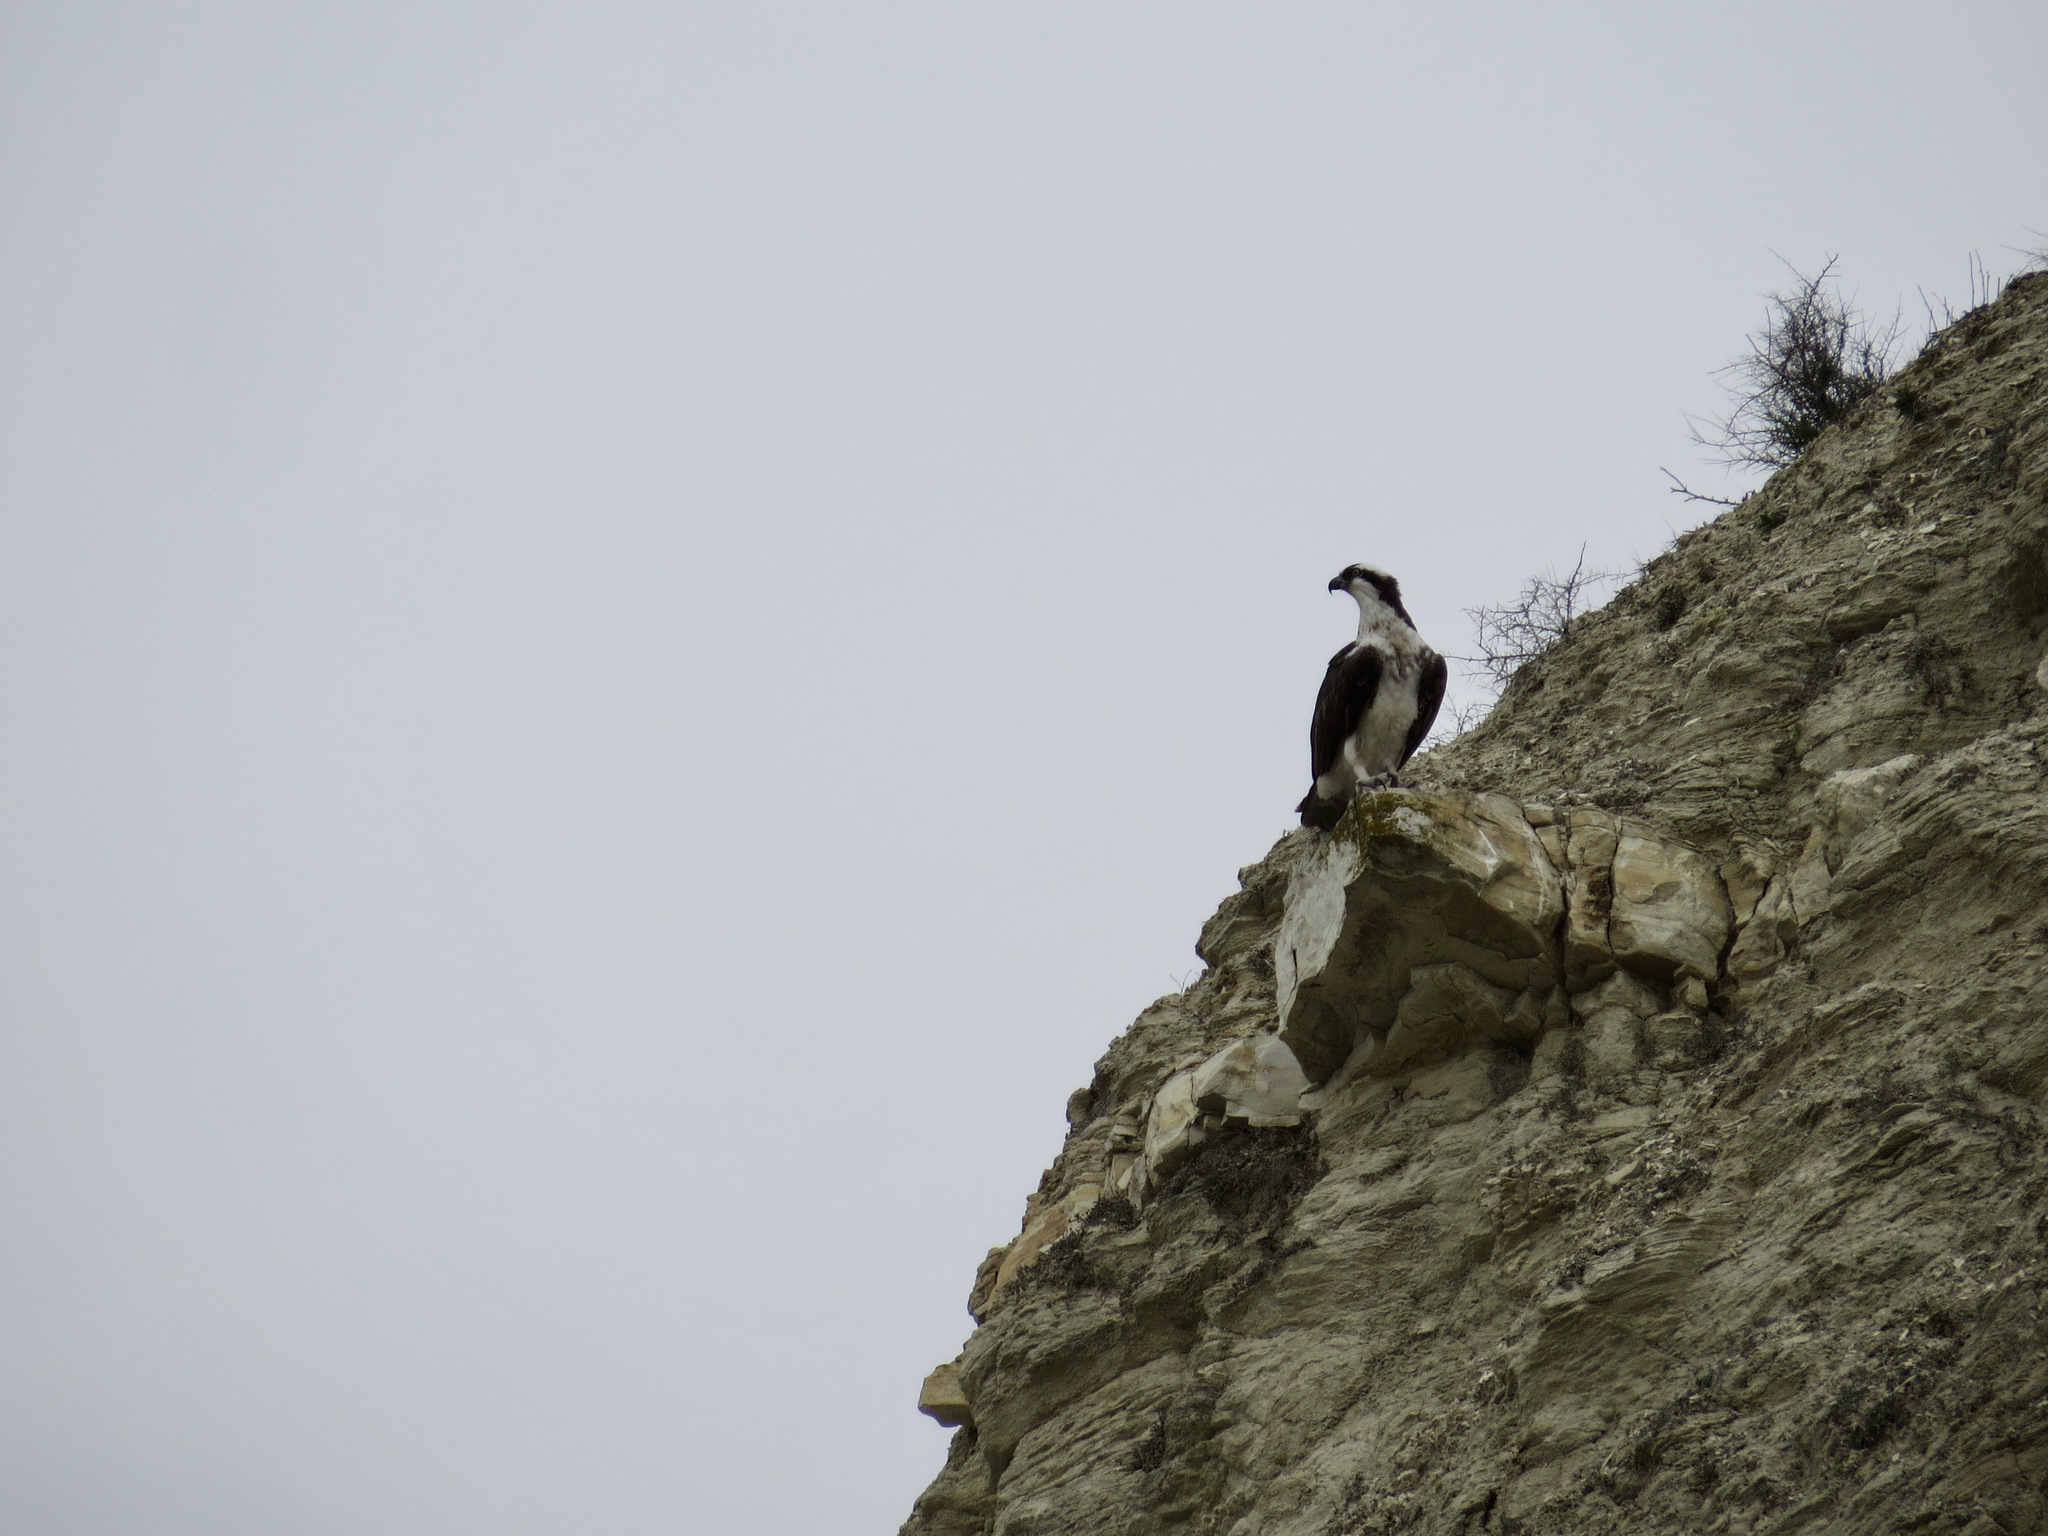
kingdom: Animalia
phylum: Chordata
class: Aves
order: Accipitriformes
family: Pandionidae
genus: Pandion
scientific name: Pandion haliaetus
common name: Osprey
